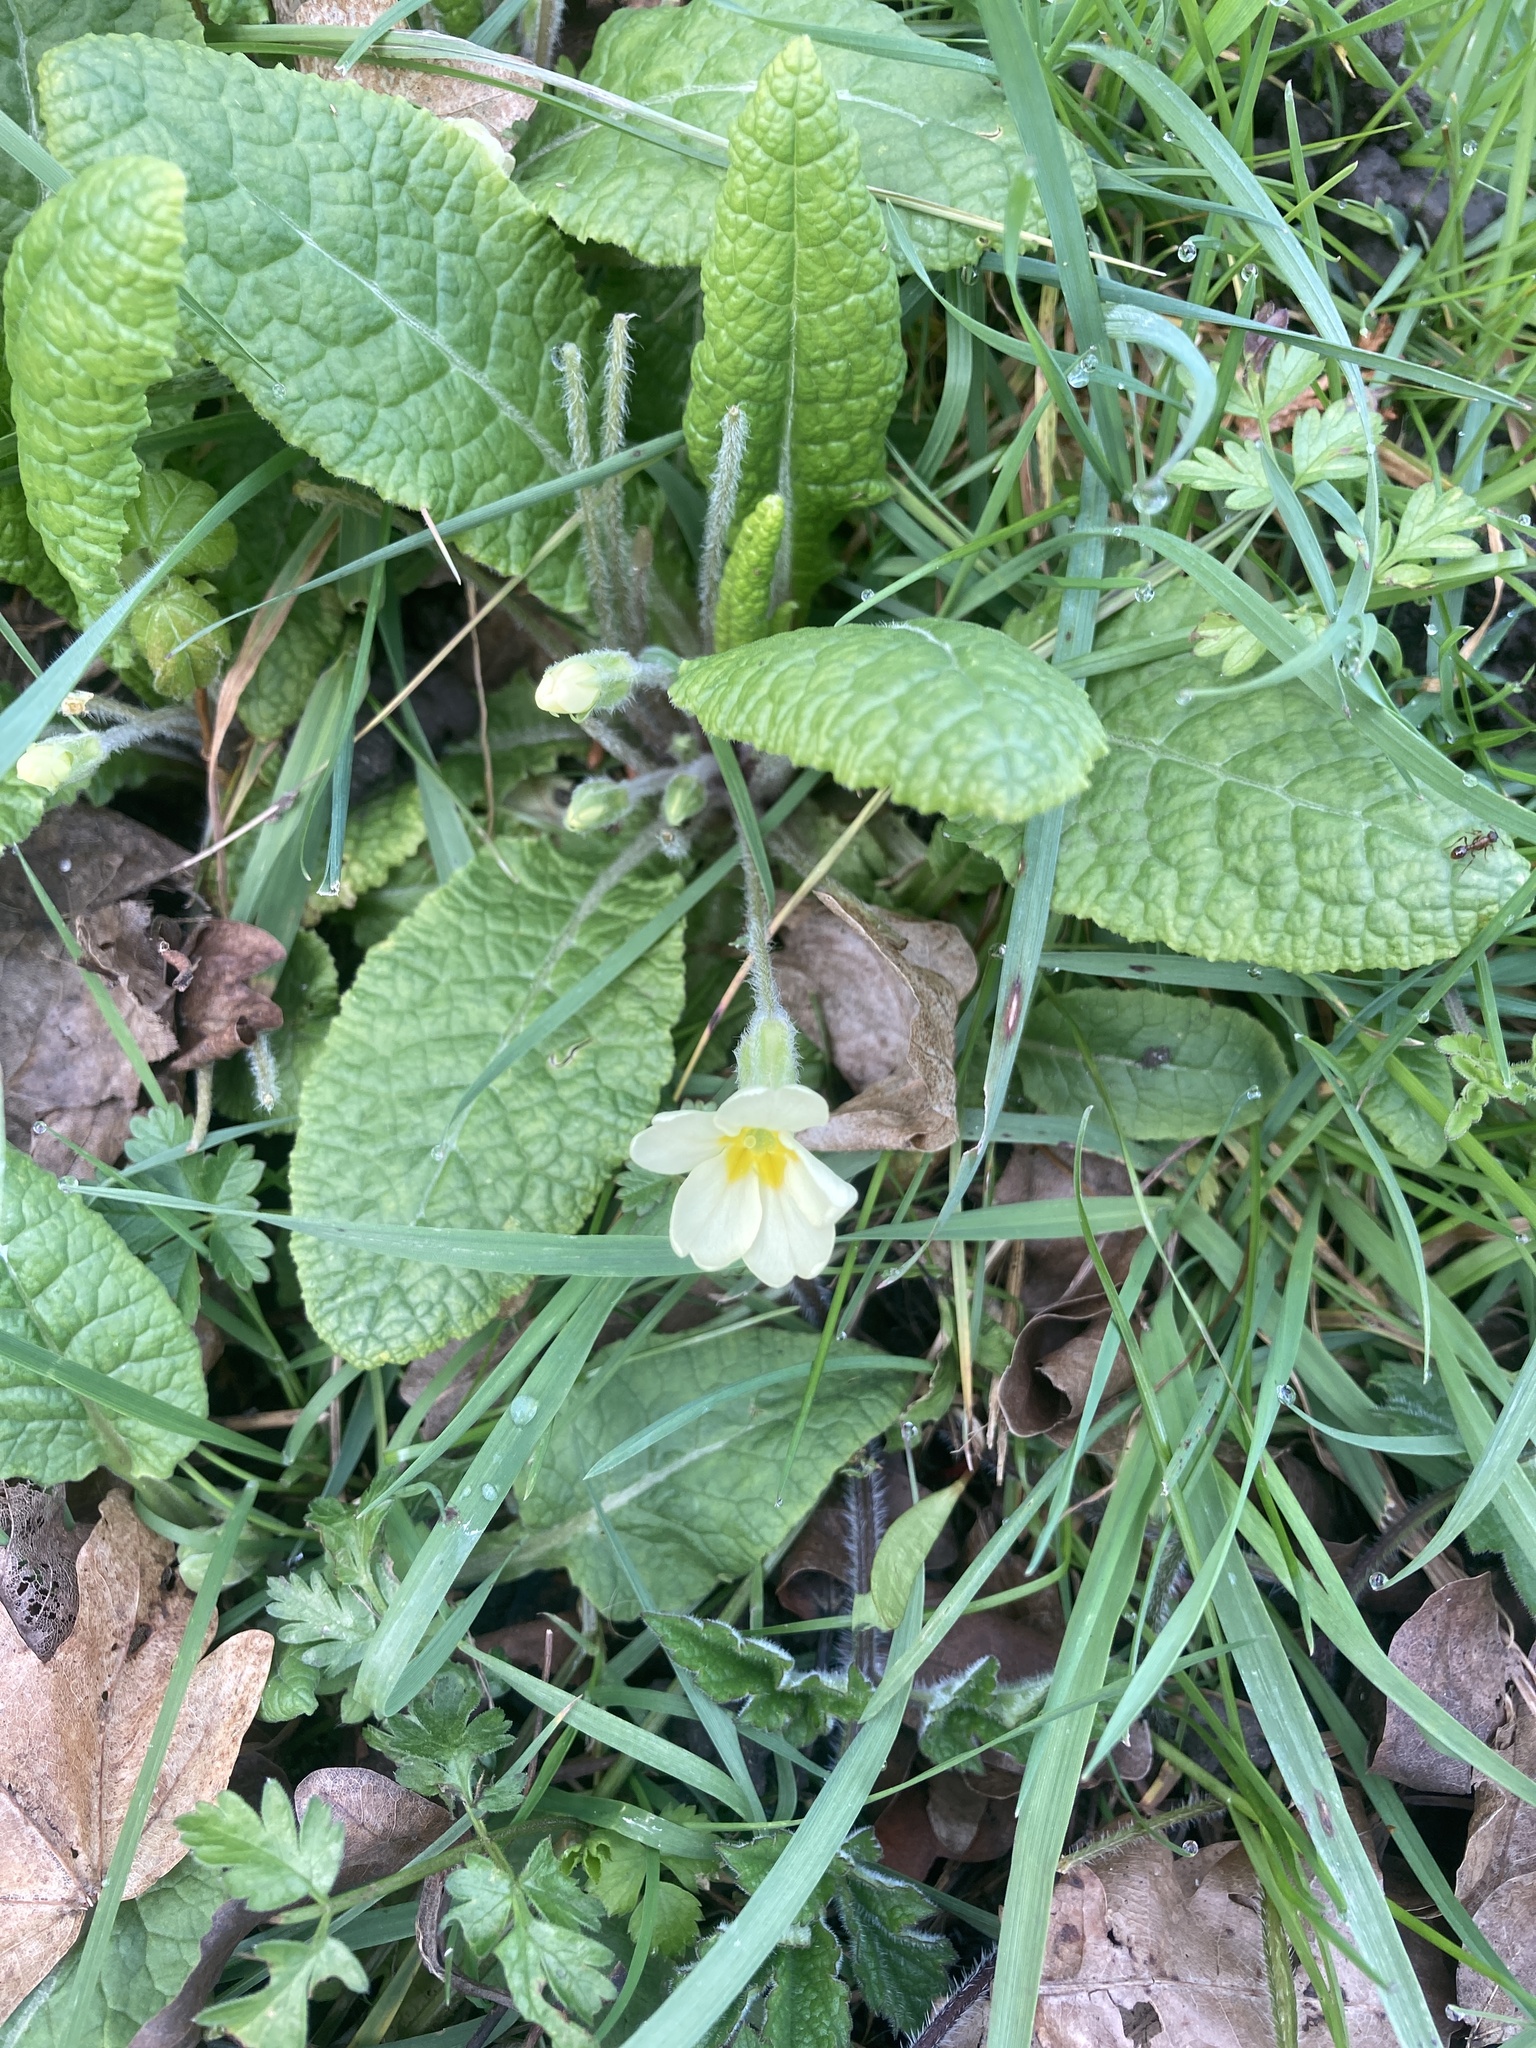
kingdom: Plantae
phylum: Tracheophyta
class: Magnoliopsida
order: Ericales
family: Primulaceae
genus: Primula
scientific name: Primula vulgaris
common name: Primrose
